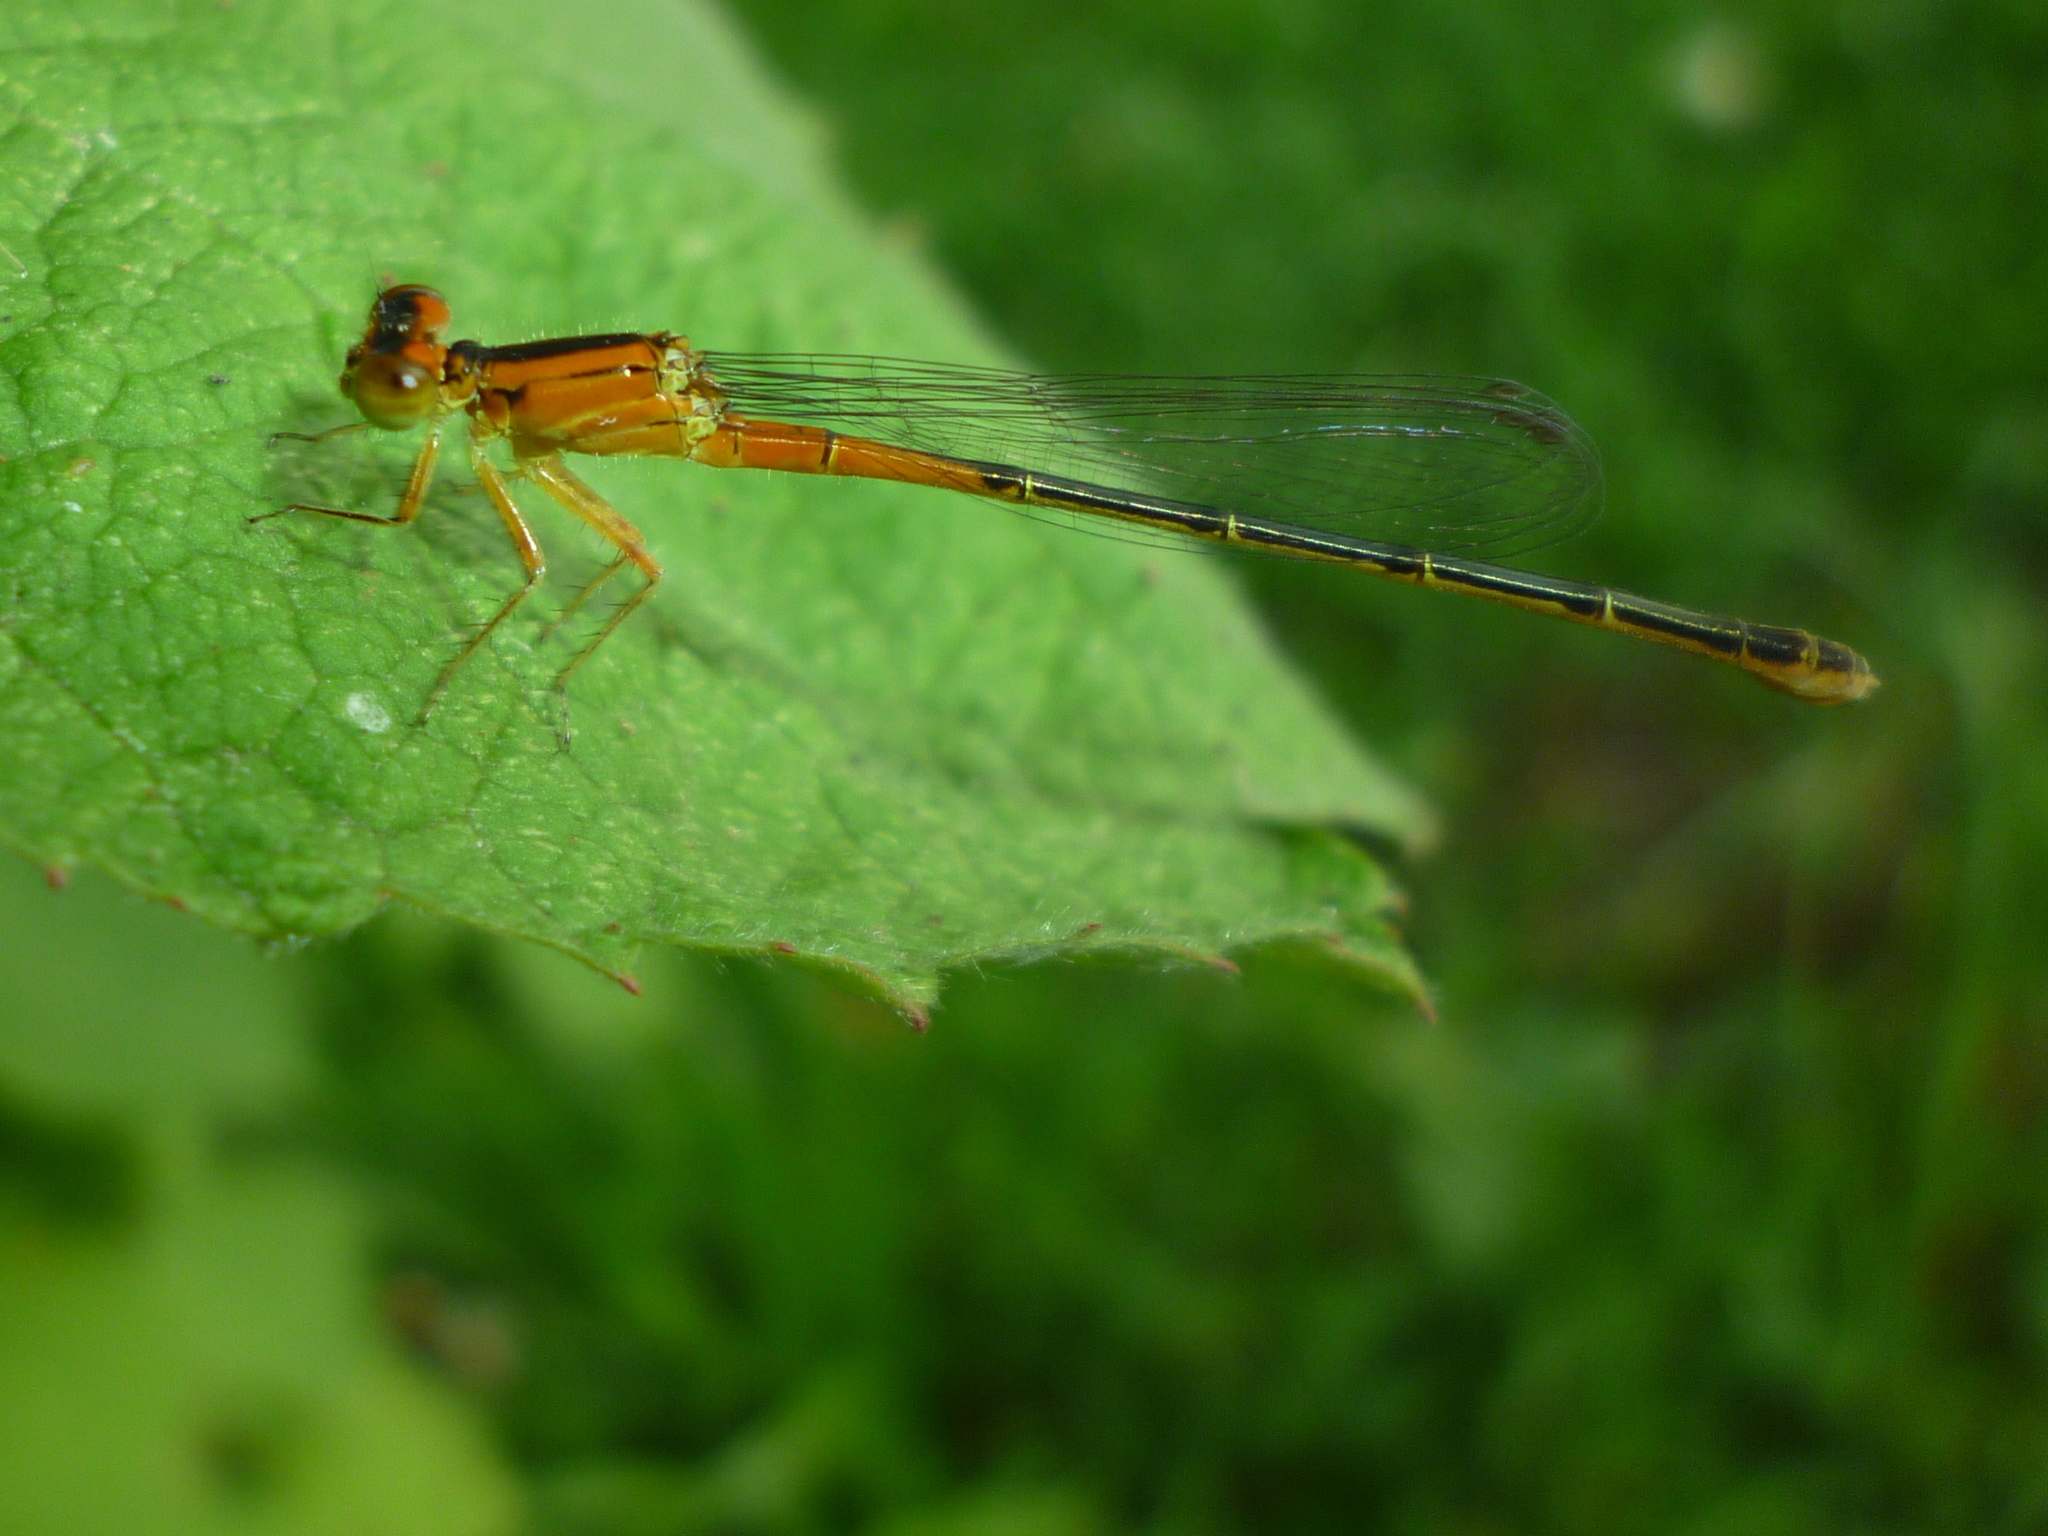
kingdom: Animalia
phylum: Arthropoda
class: Insecta
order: Odonata
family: Coenagrionidae
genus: Ischnura
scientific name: Ischnura verticalis
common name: Eastern forktail
